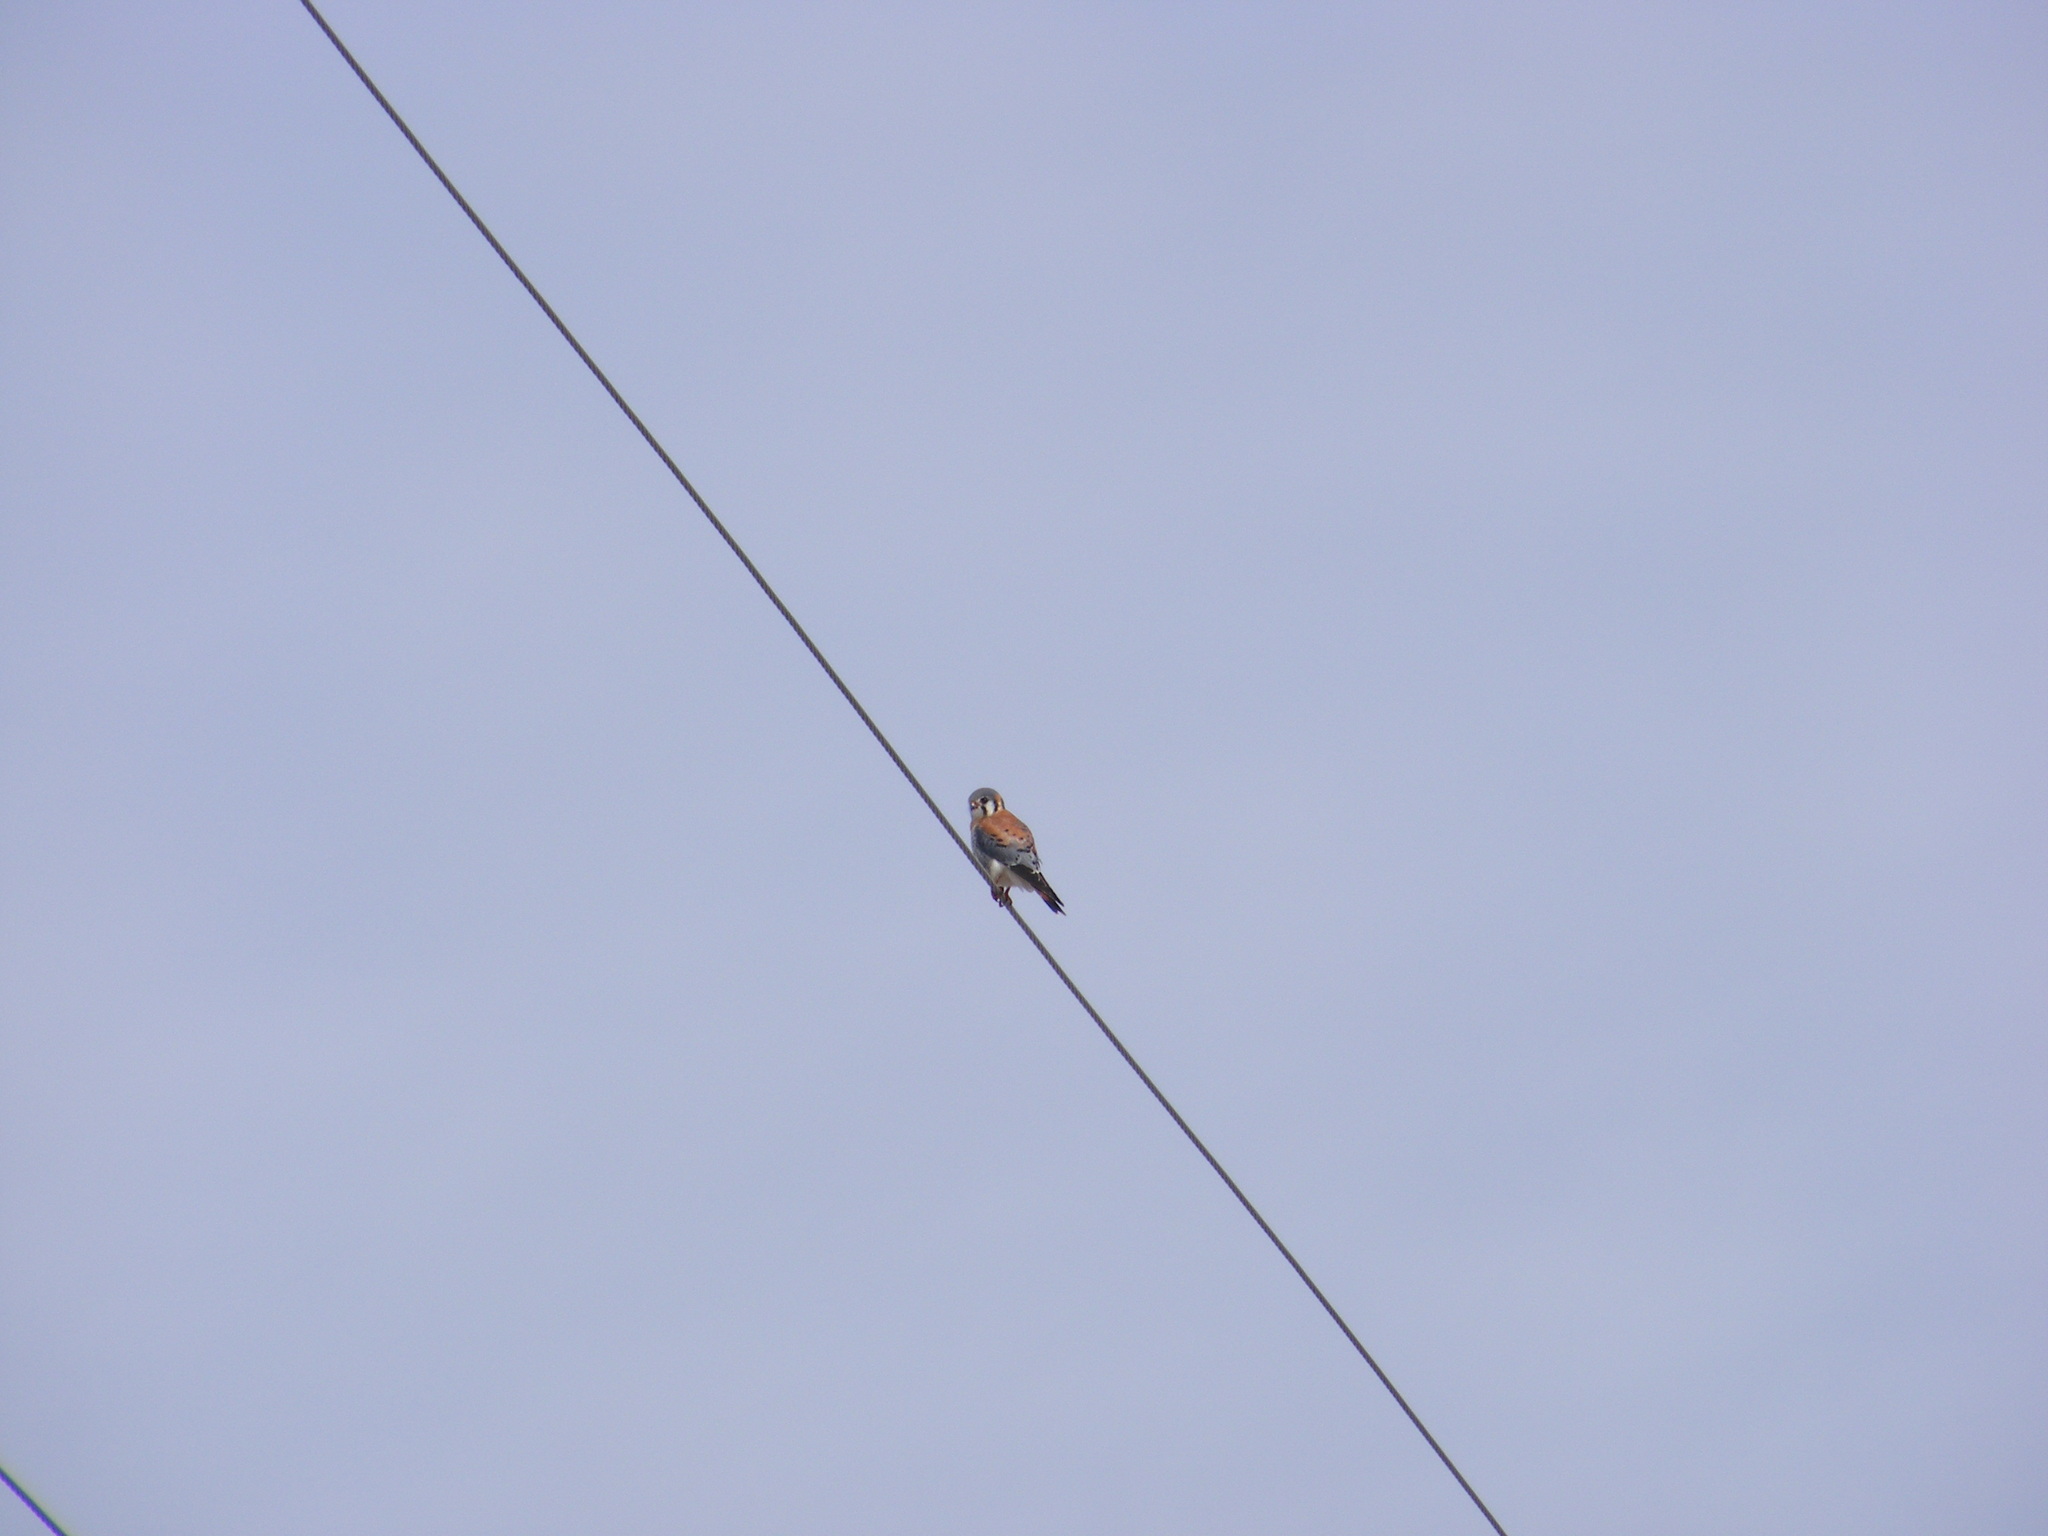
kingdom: Animalia
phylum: Chordata
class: Aves
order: Falconiformes
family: Falconidae
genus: Falco
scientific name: Falco sparverius
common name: American kestrel
